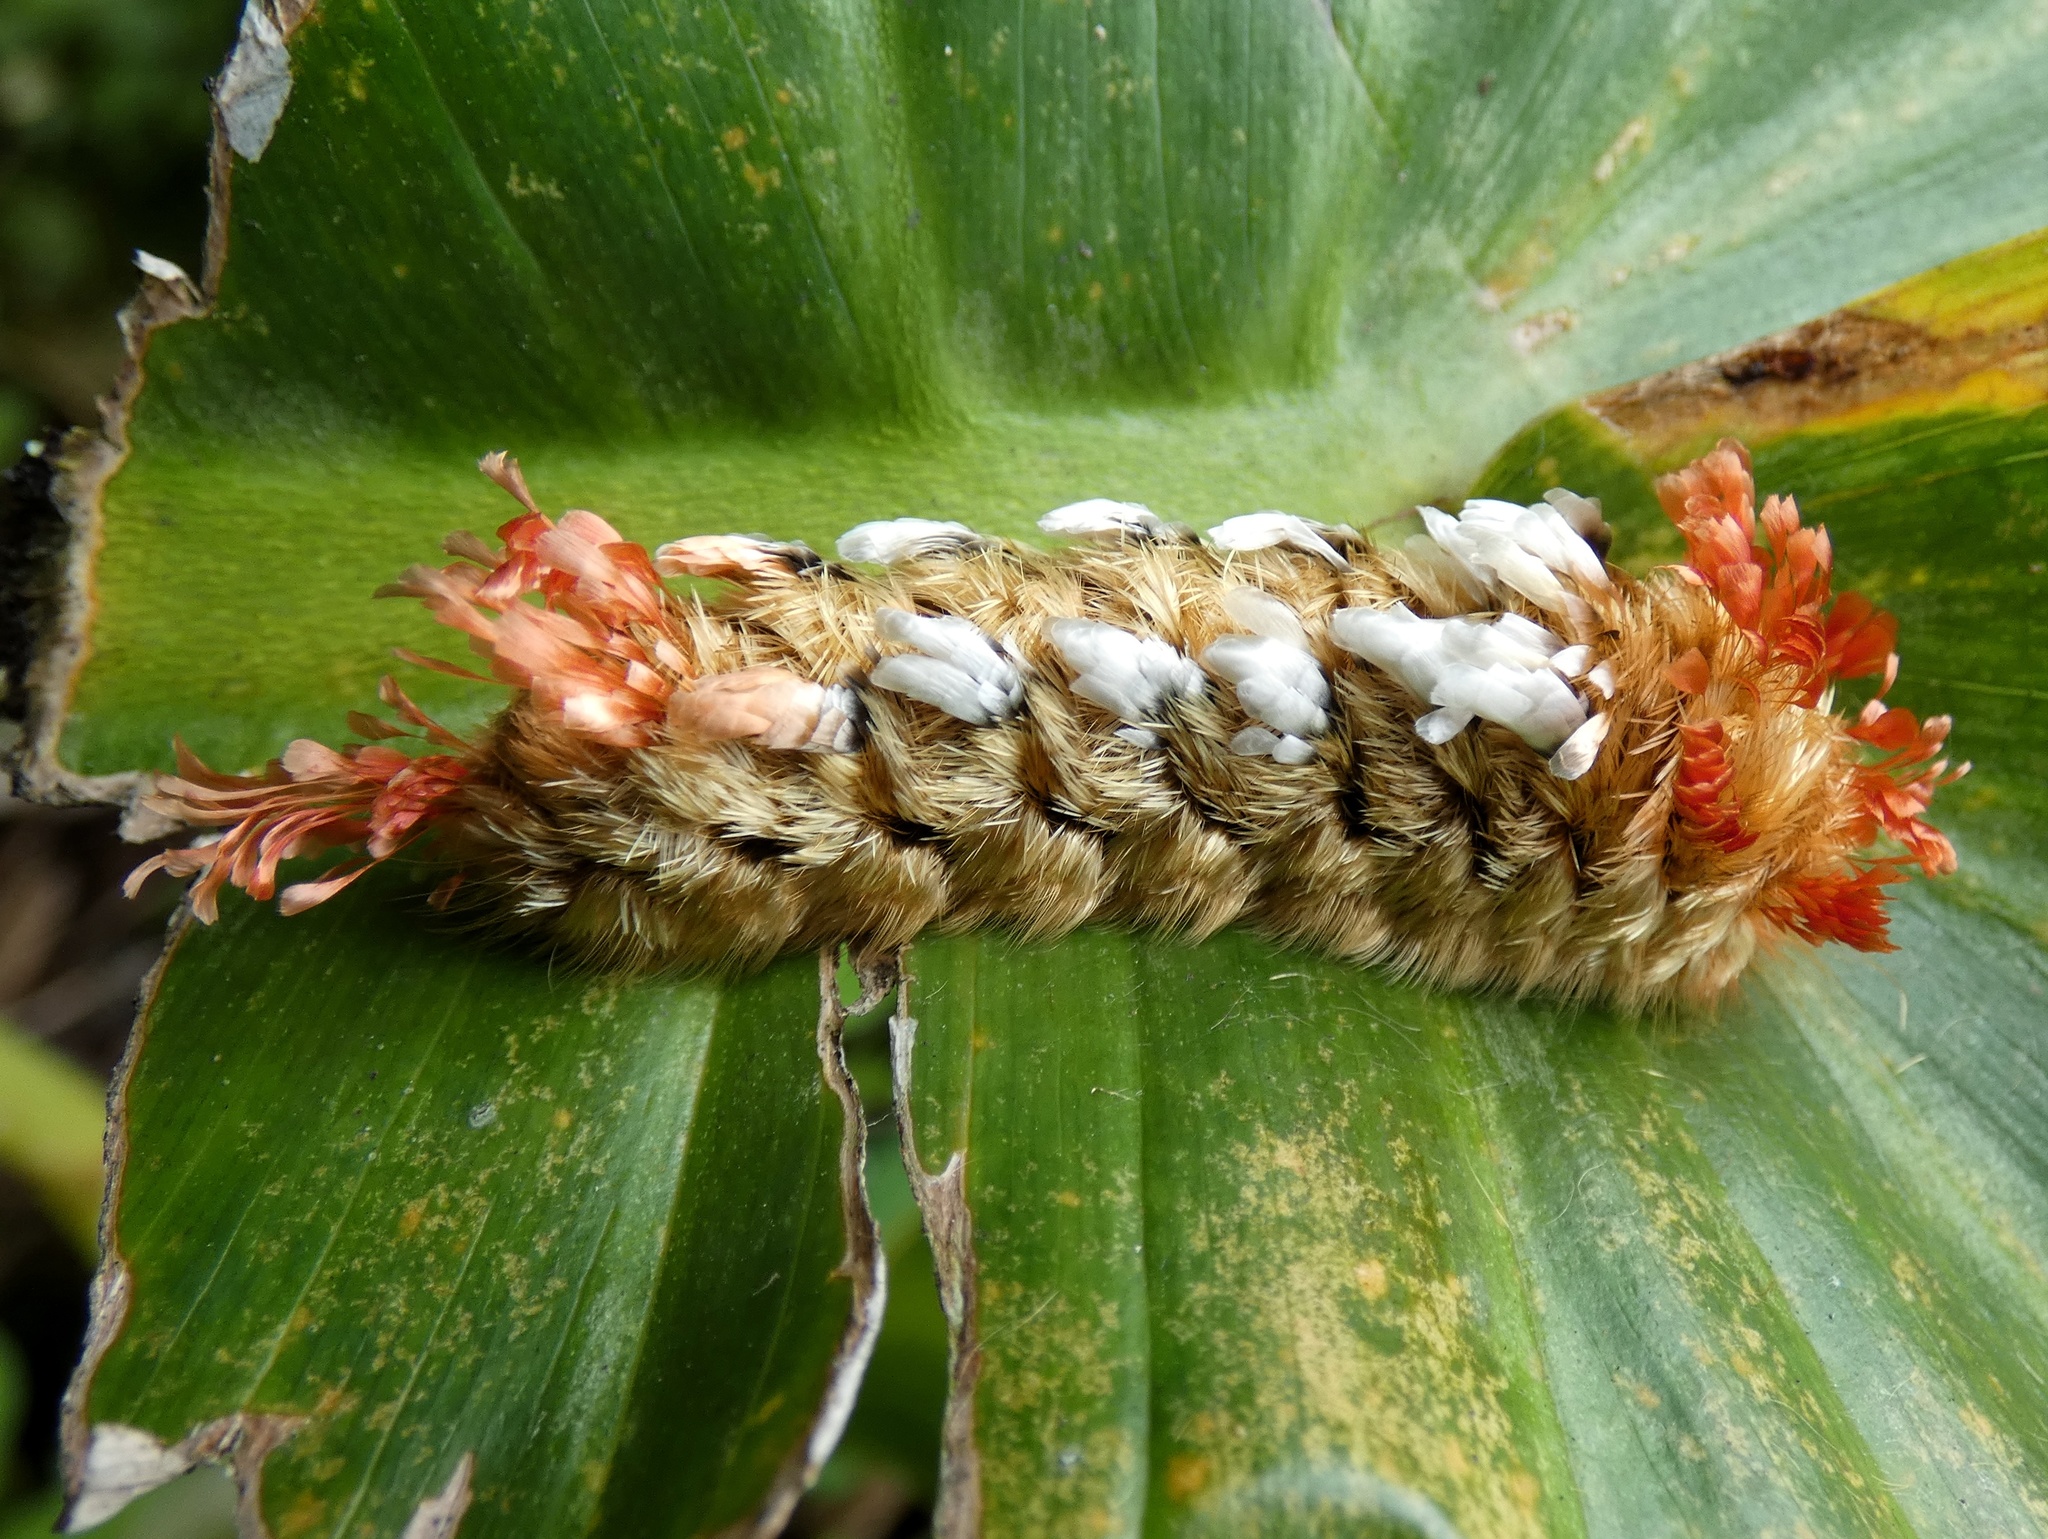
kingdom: Animalia
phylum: Arthropoda
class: Insecta
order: Lepidoptera
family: Bombycidae
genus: Prothysana
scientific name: Prothysana
